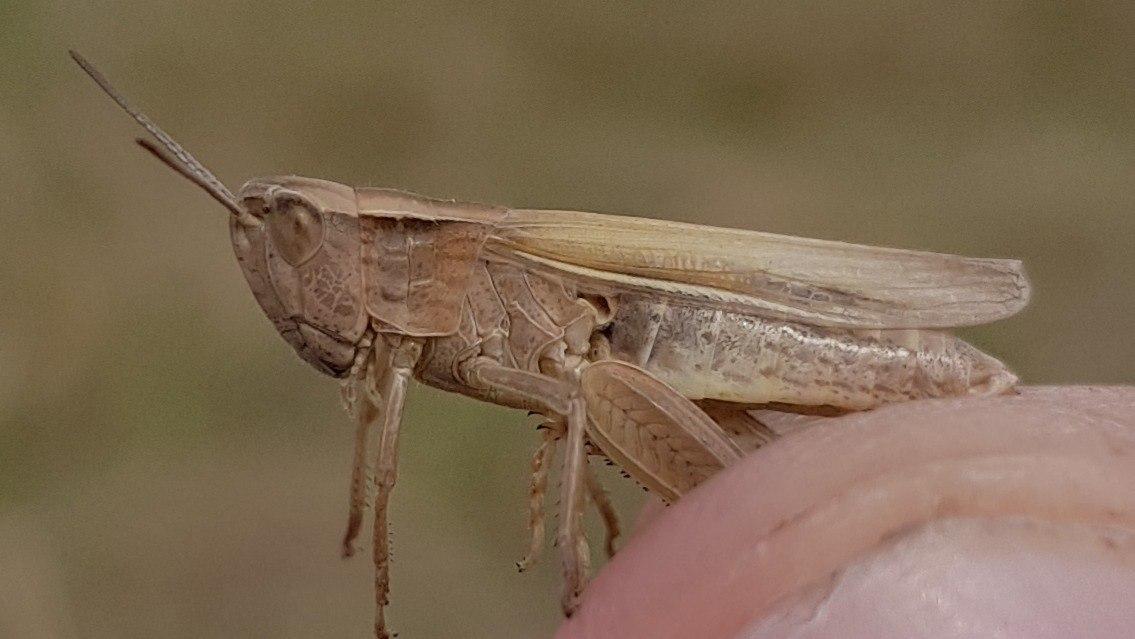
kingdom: Animalia
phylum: Arthropoda
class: Insecta
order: Orthoptera
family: Acrididae
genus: Chorthippus
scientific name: Chorthippus albomarginatus
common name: Lesser marsh grasshopper
